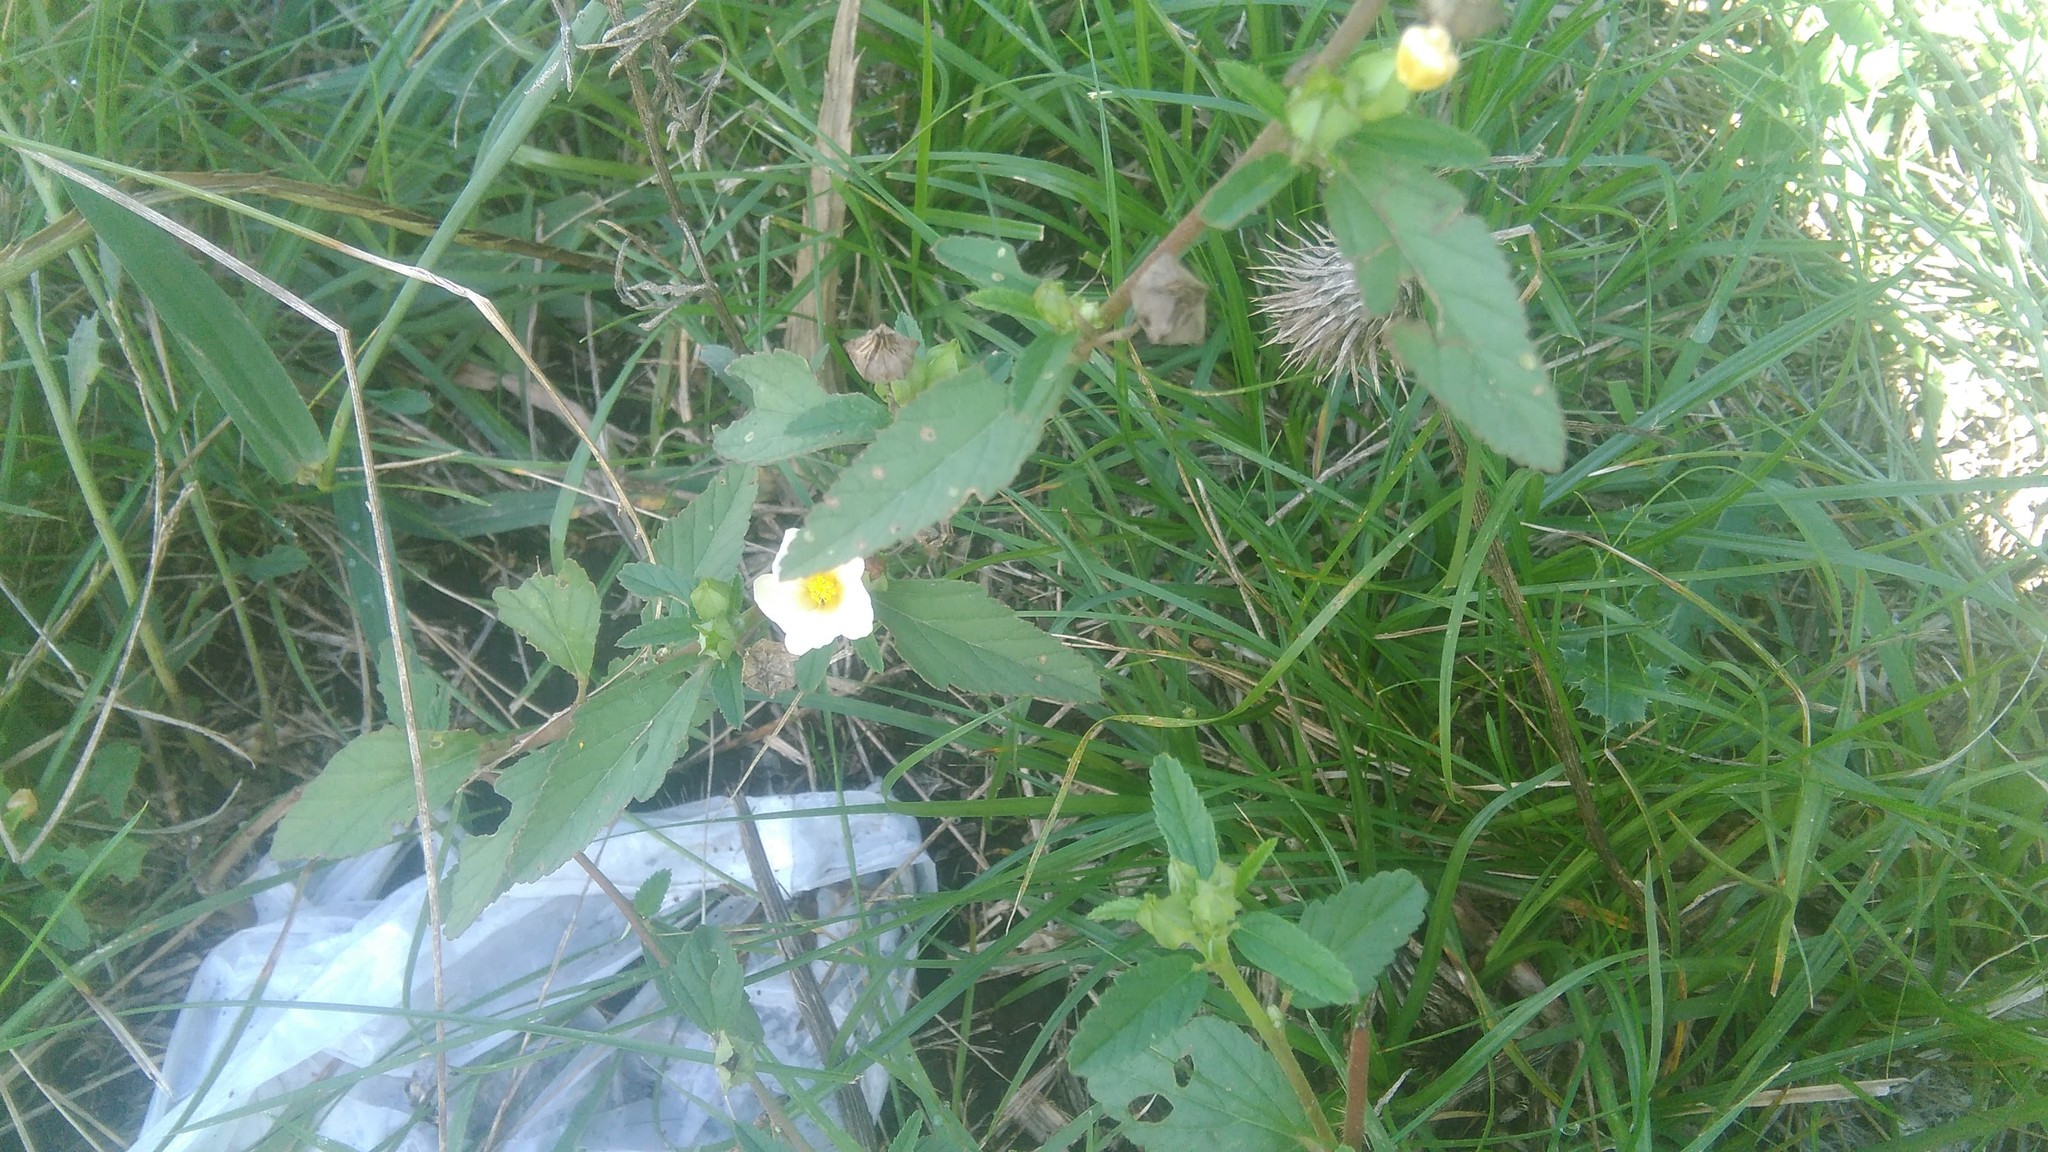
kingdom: Plantae
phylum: Tracheophyta
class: Magnoliopsida
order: Malvales
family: Malvaceae
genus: Sida
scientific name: Sida rhombifolia
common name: Queensland-hemp
